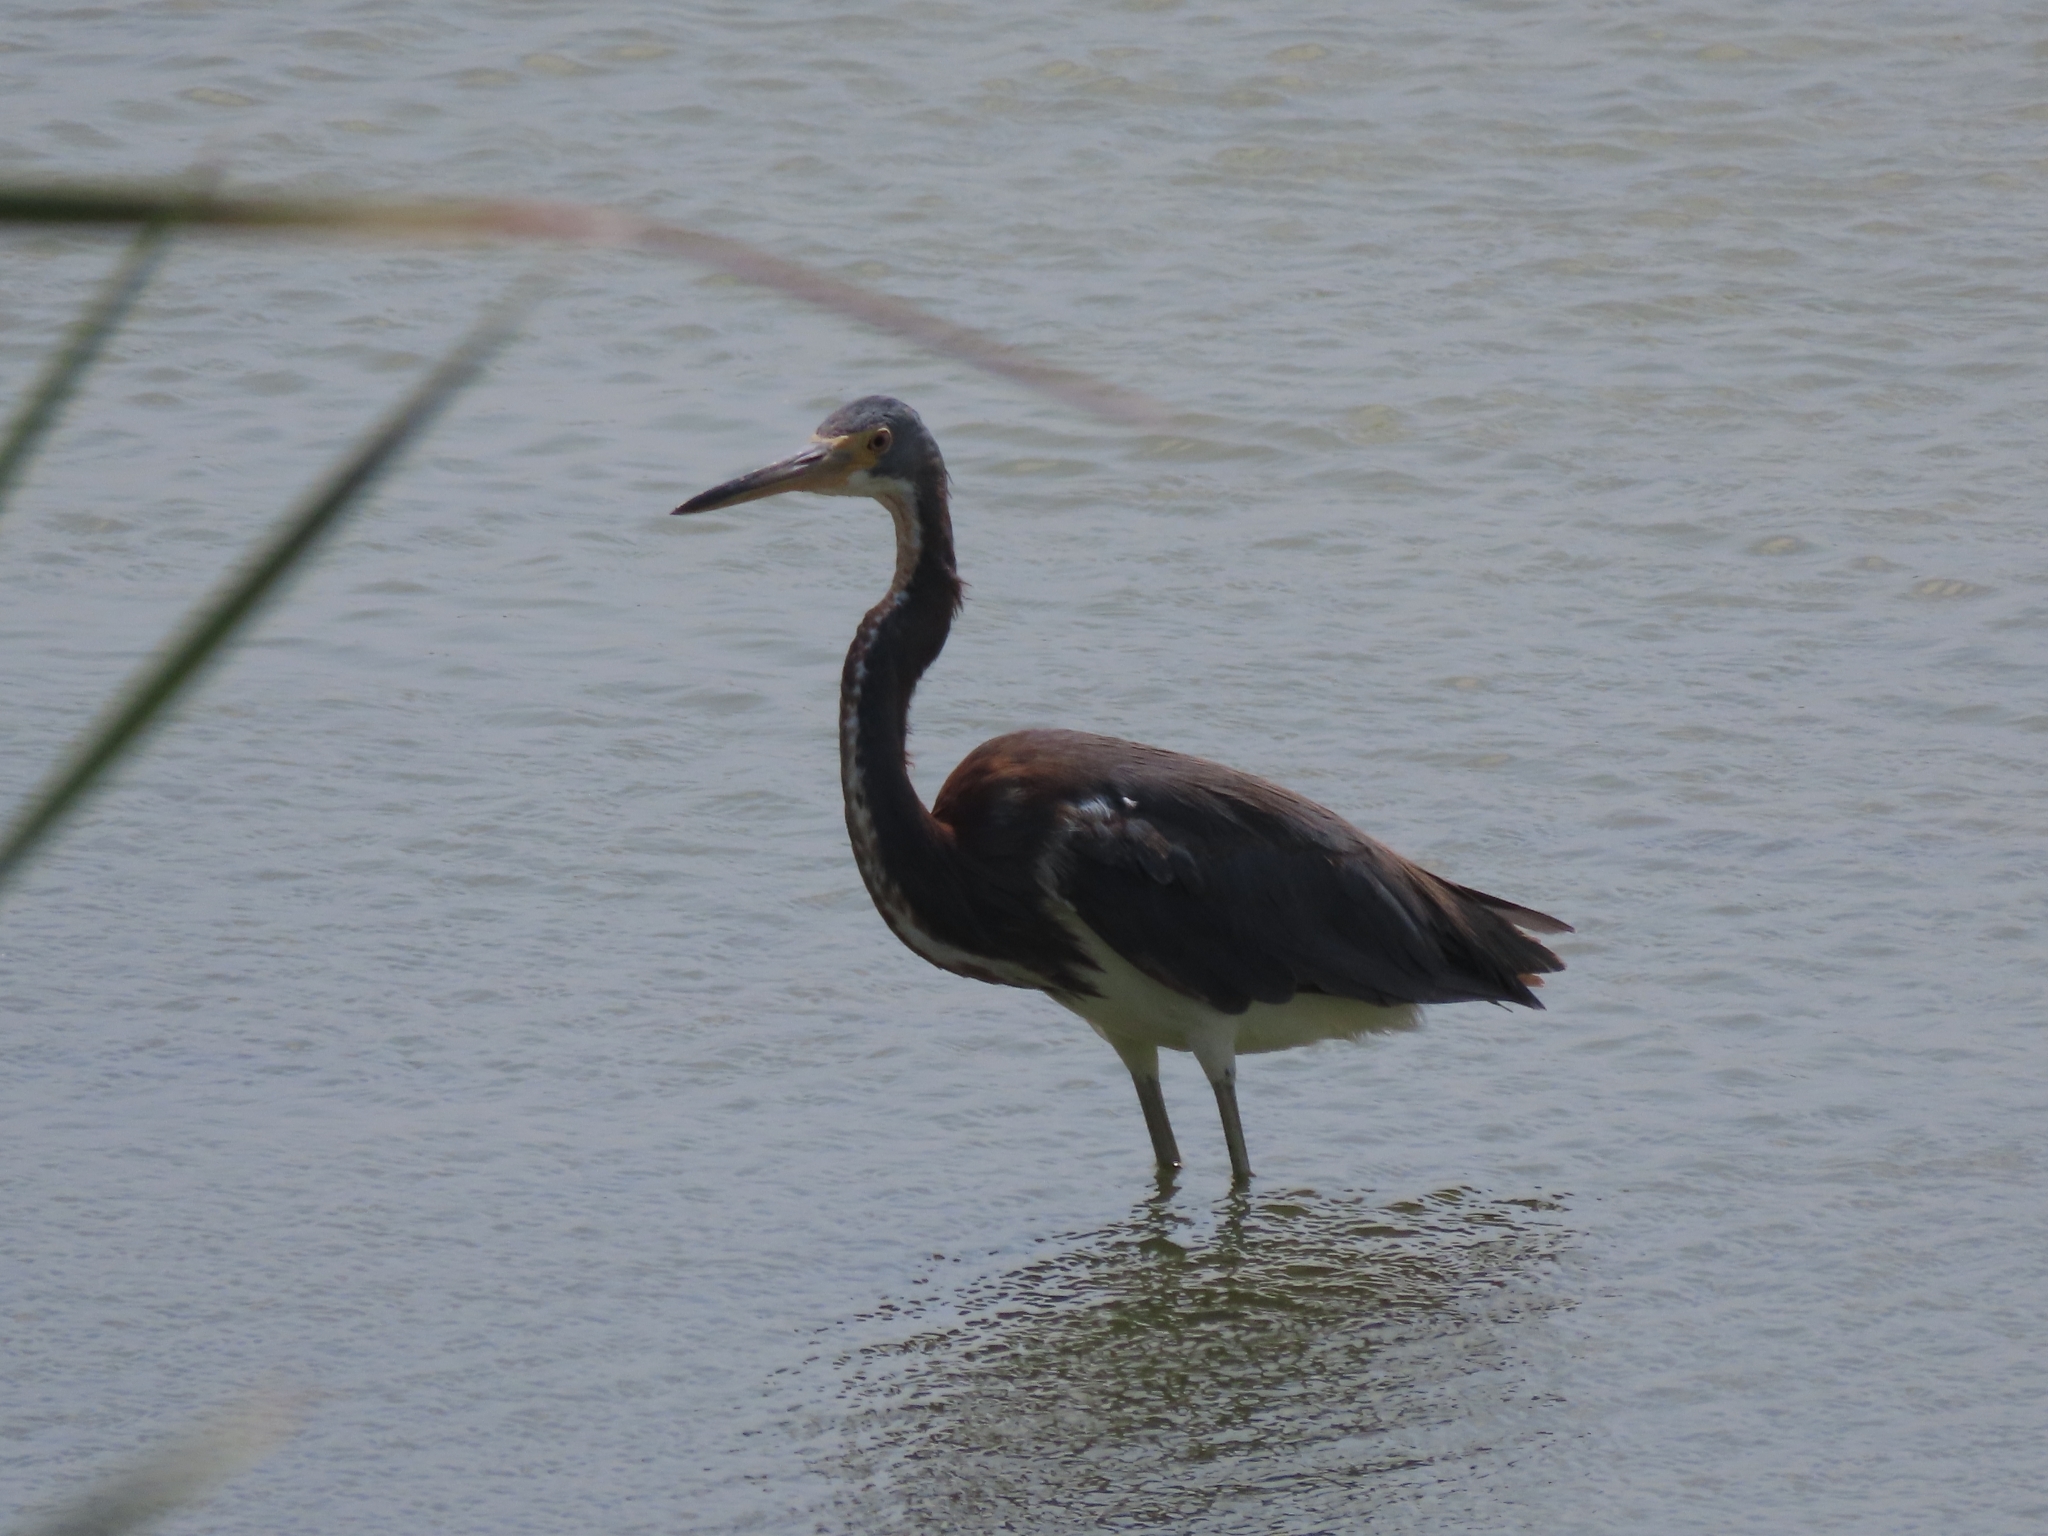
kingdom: Animalia
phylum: Chordata
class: Aves
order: Pelecaniformes
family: Ardeidae
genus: Egretta
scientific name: Egretta tricolor
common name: Tricolored heron
